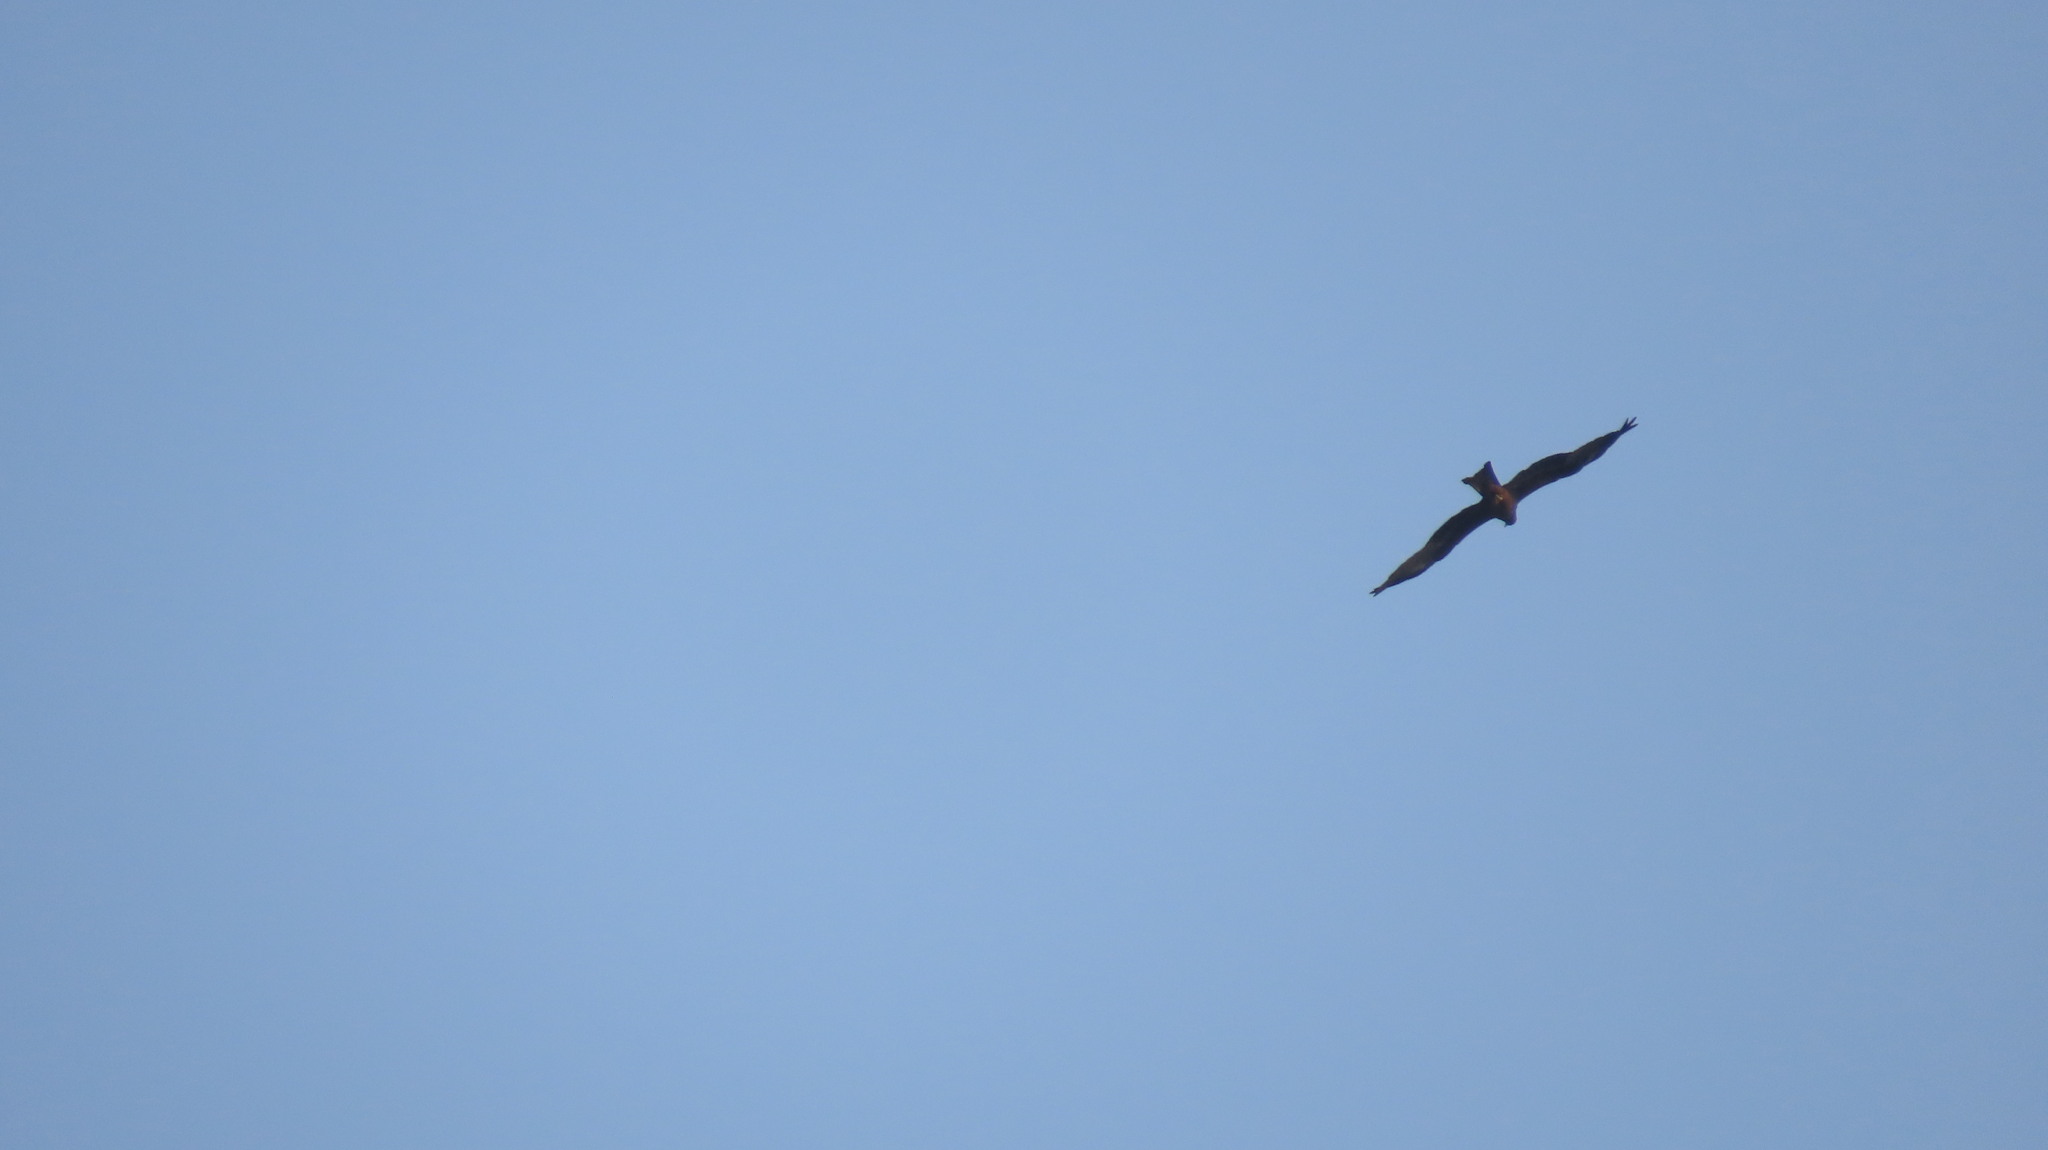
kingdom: Animalia
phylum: Chordata
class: Aves
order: Accipitriformes
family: Accipitridae
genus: Milvus
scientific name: Milvus migrans
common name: Black kite
